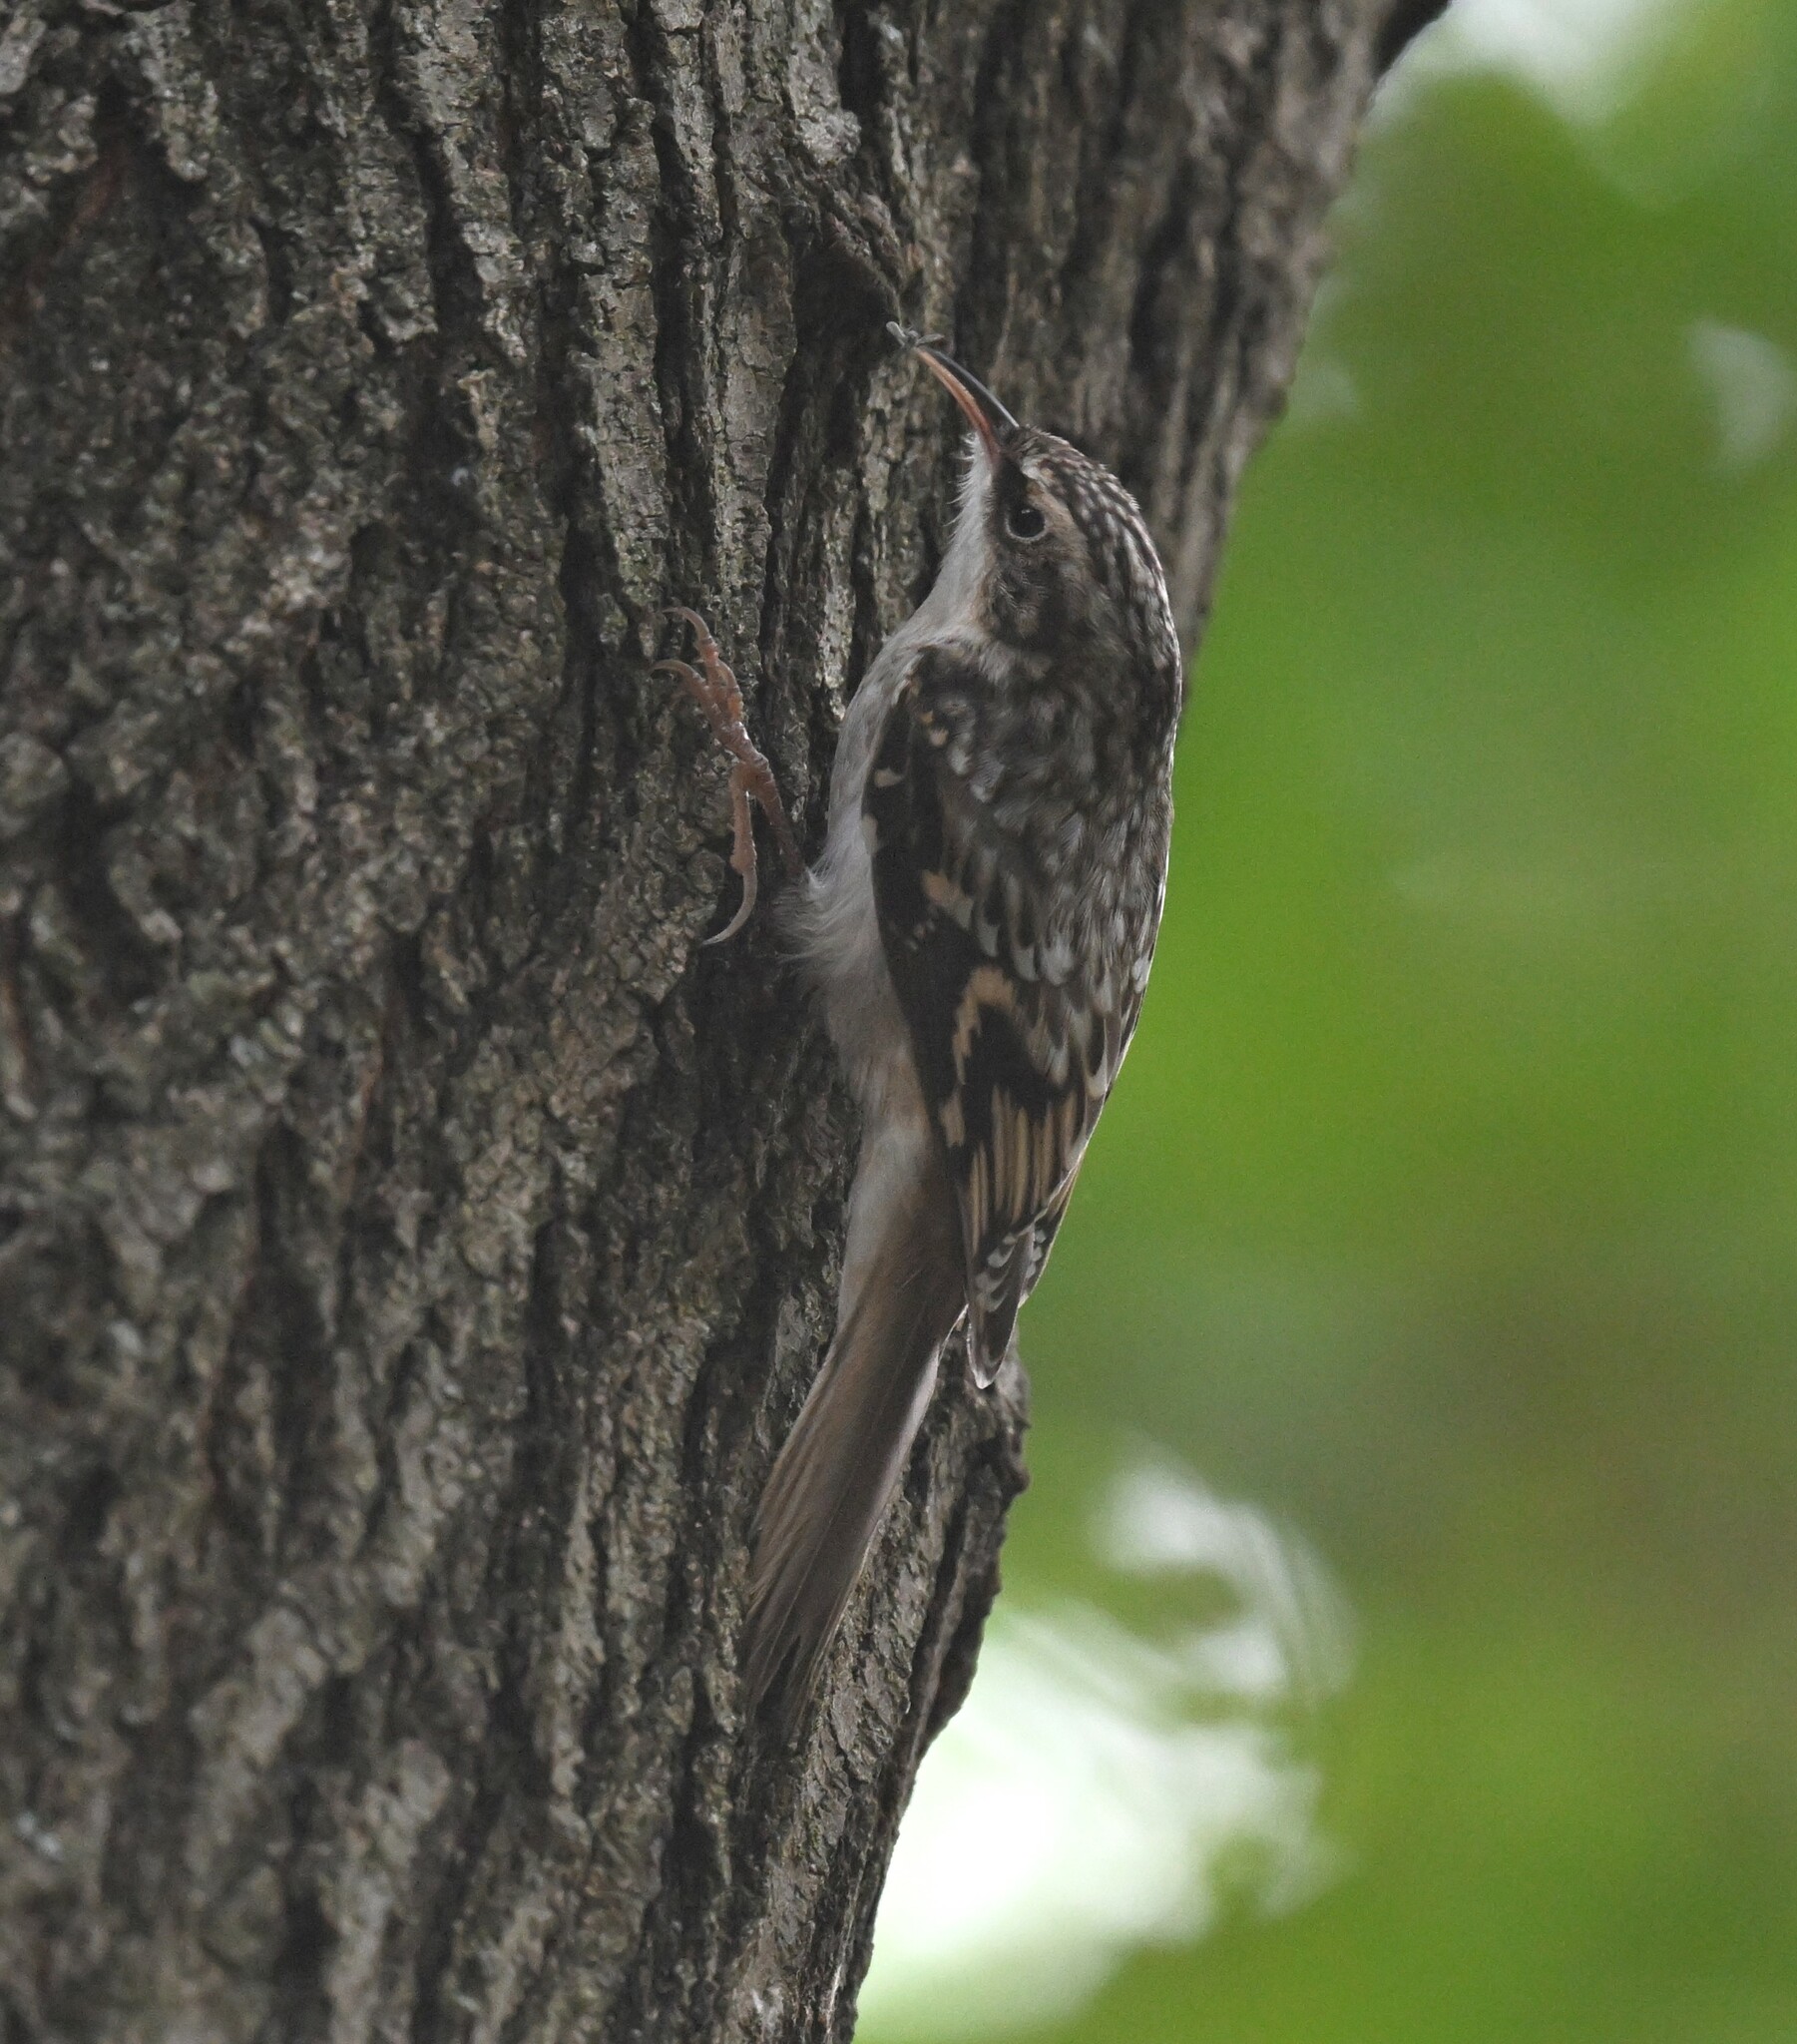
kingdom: Animalia
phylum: Chordata
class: Aves
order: Passeriformes
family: Certhiidae
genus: Certhia
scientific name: Certhia americana
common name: Brown creeper
